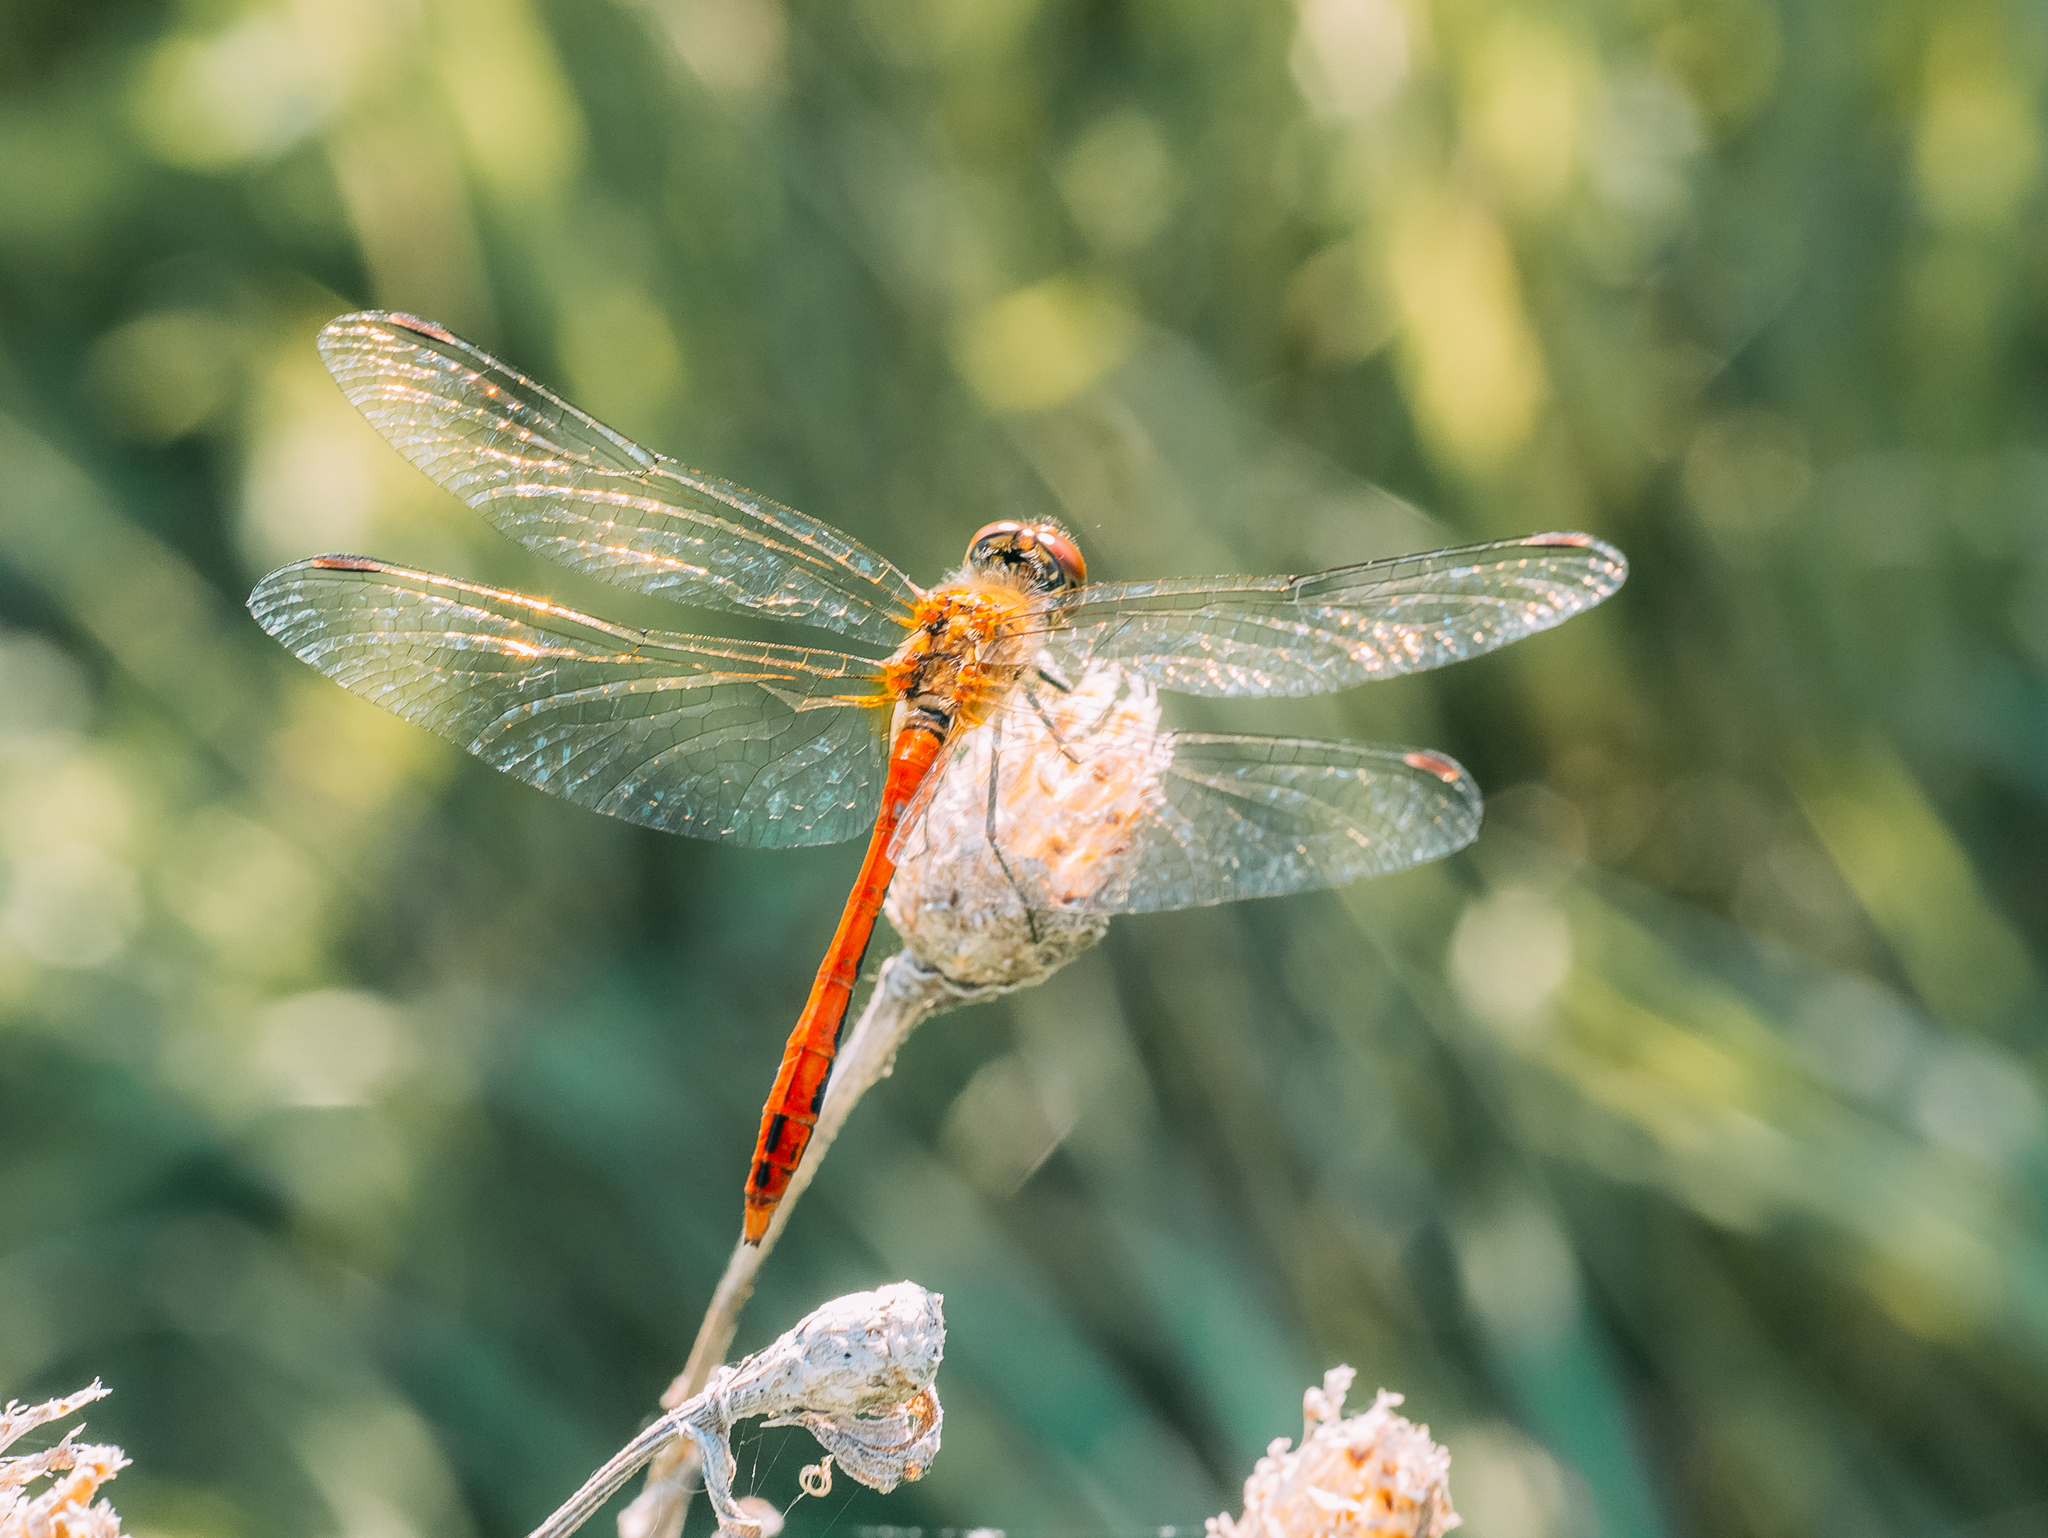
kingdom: Animalia
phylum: Arthropoda
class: Insecta
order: Odonata
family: Libellulidae
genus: Sympetrum
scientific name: Sympetrum sanguineum
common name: Ruddy darter
